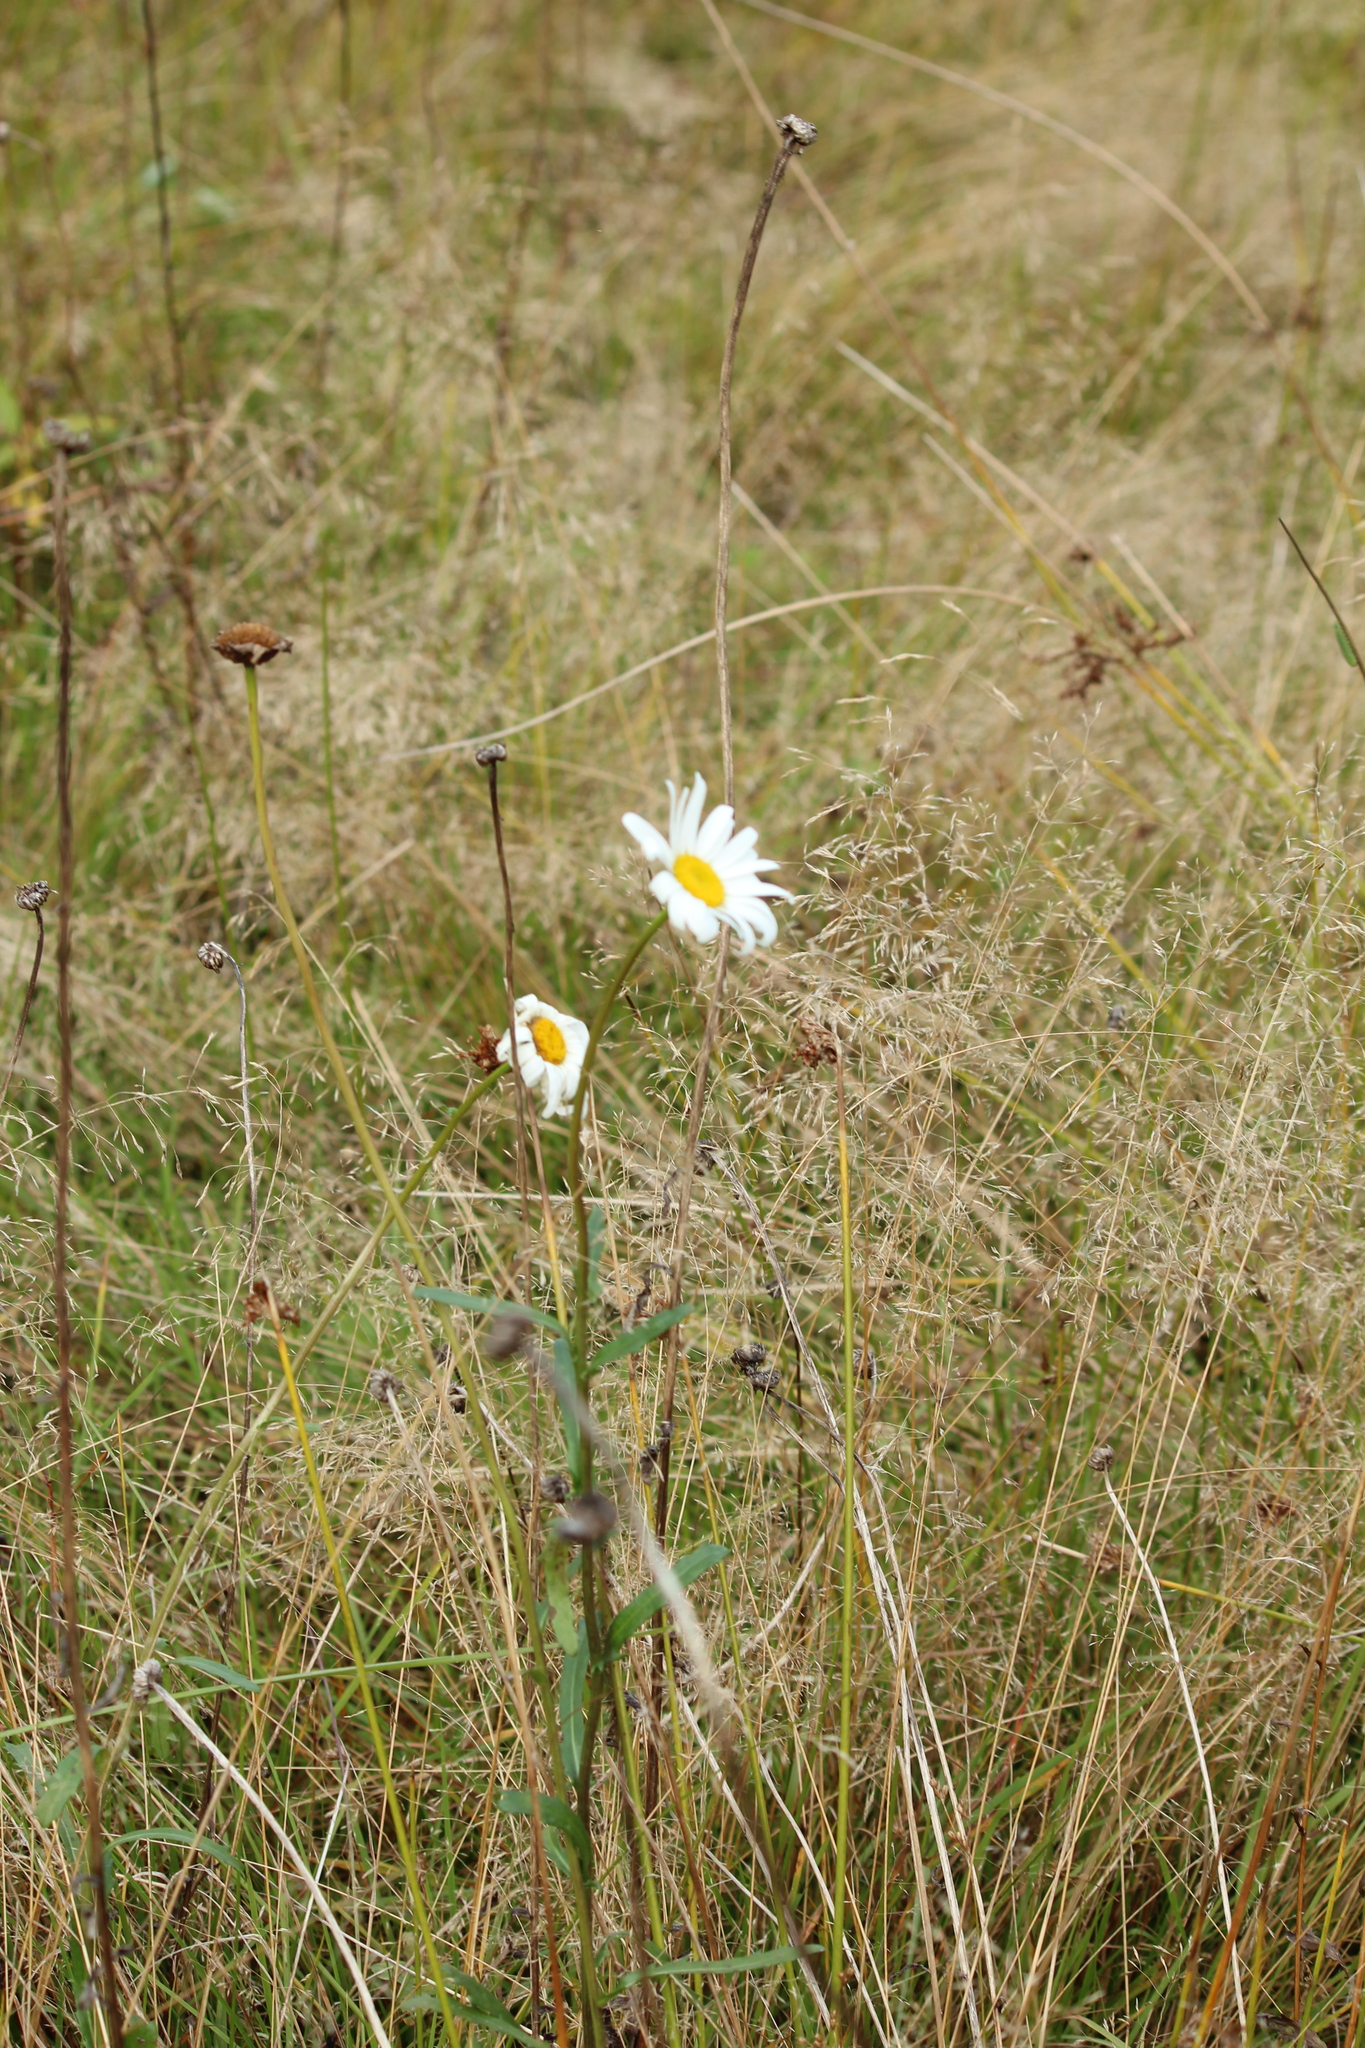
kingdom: Plantae
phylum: Tracheophyta
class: Magnoliopsida
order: Asterales
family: Asteraceae
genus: Leucanthemum
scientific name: Leucanthemum vulgare
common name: Oxeye daisy
